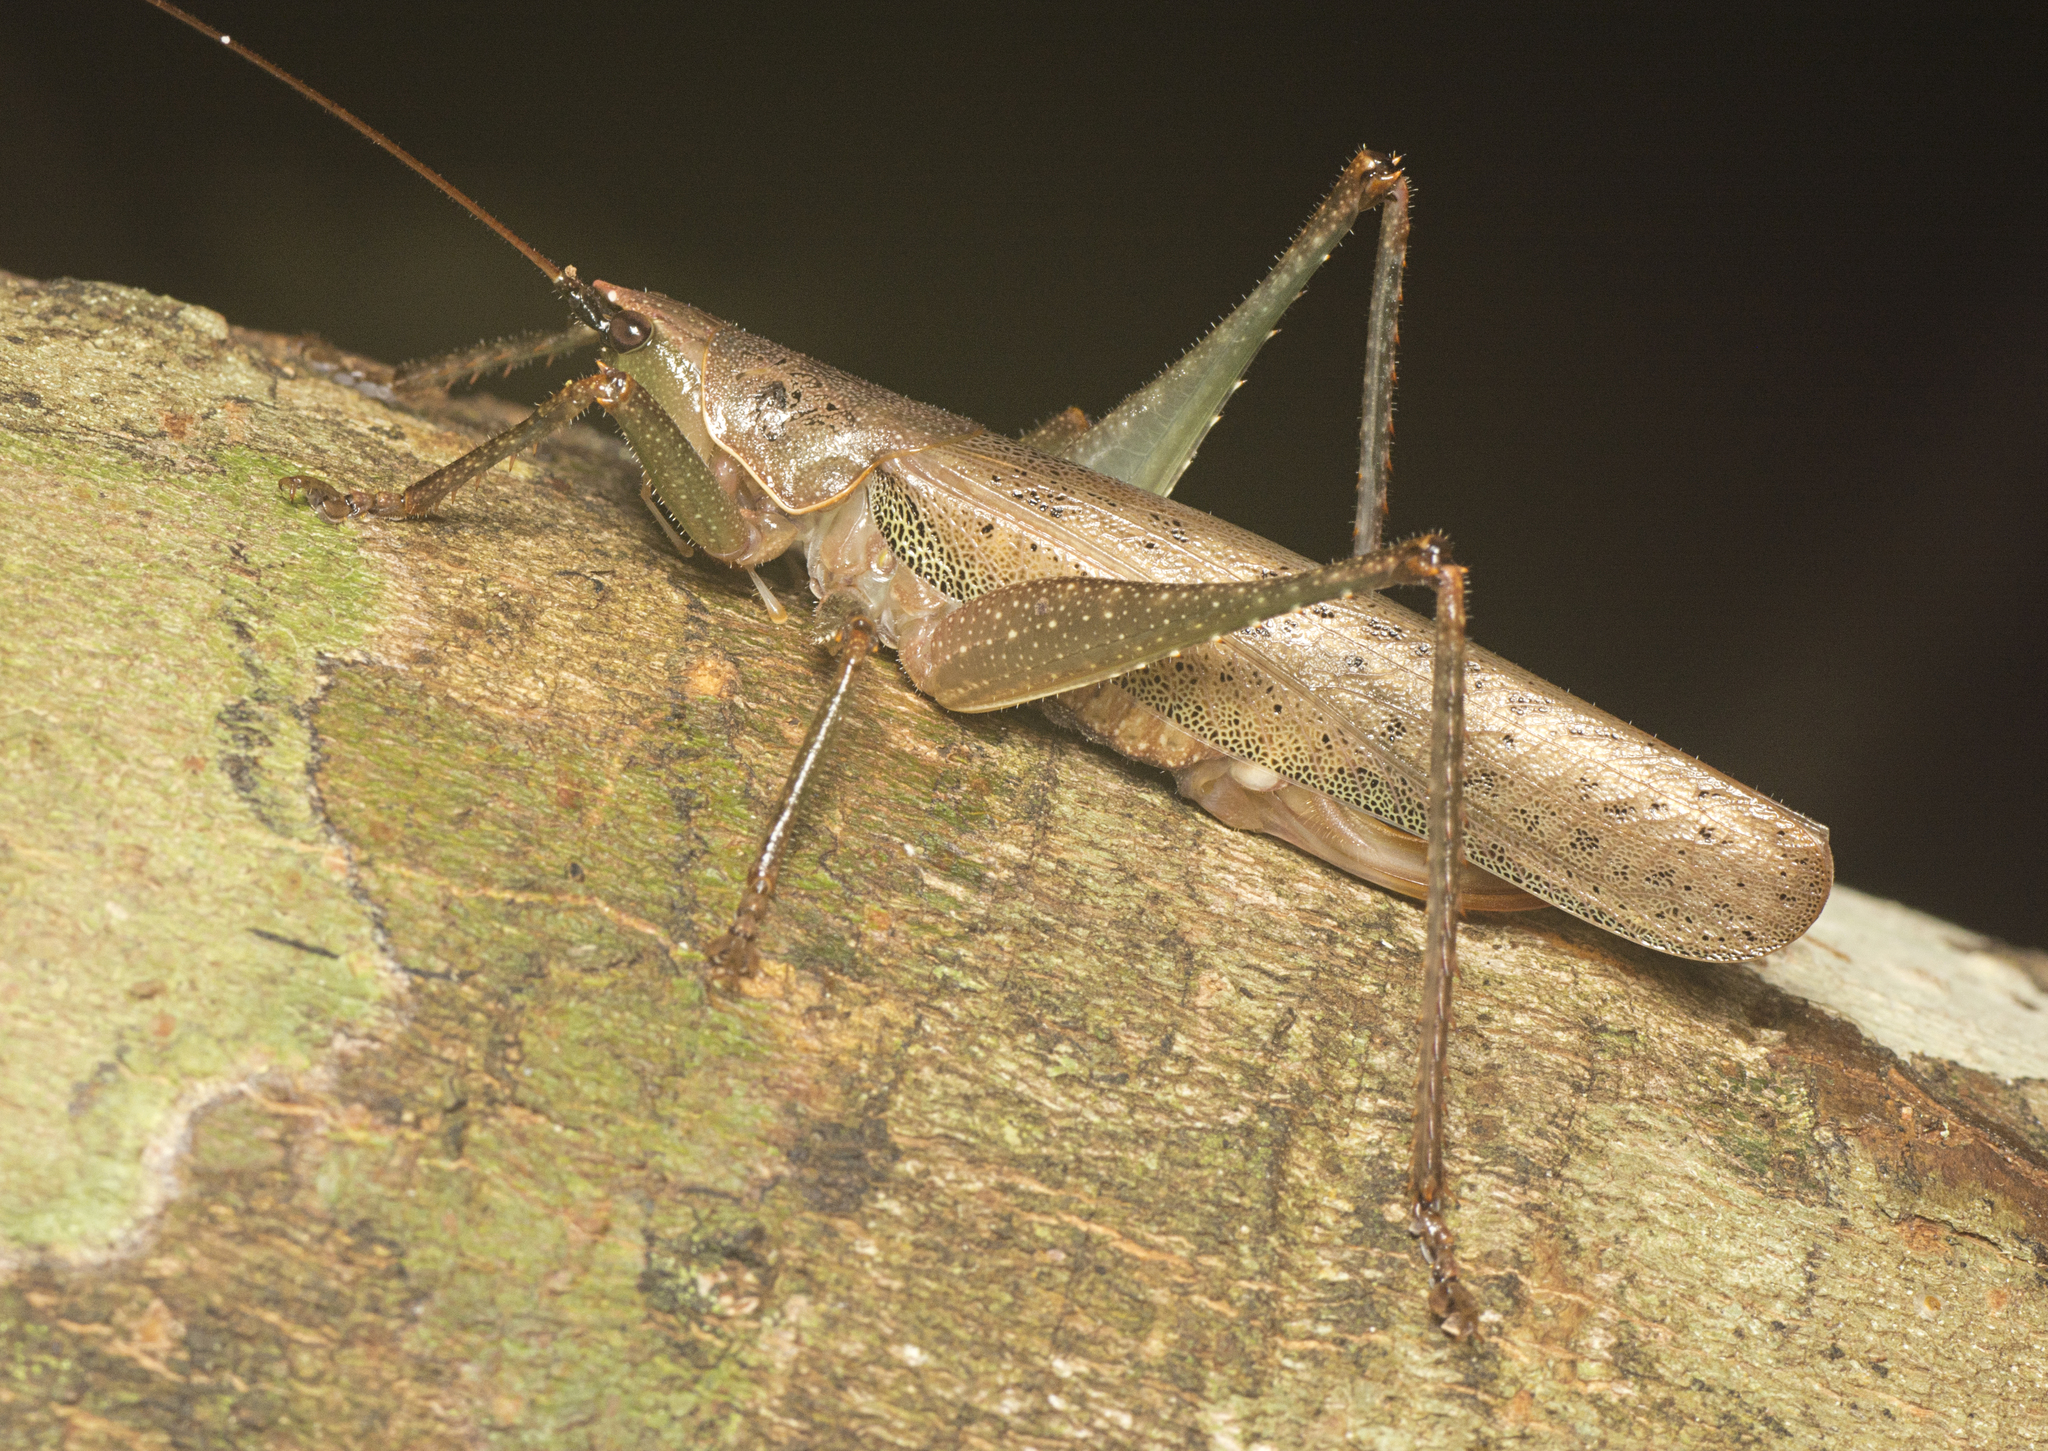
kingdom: Animalia
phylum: Arthropoda
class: Insecta
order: Orthoptera
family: Tettigoniidae
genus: Austrosalomona
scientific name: Austrosalomona falcata
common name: Olive-green coastal katydid
